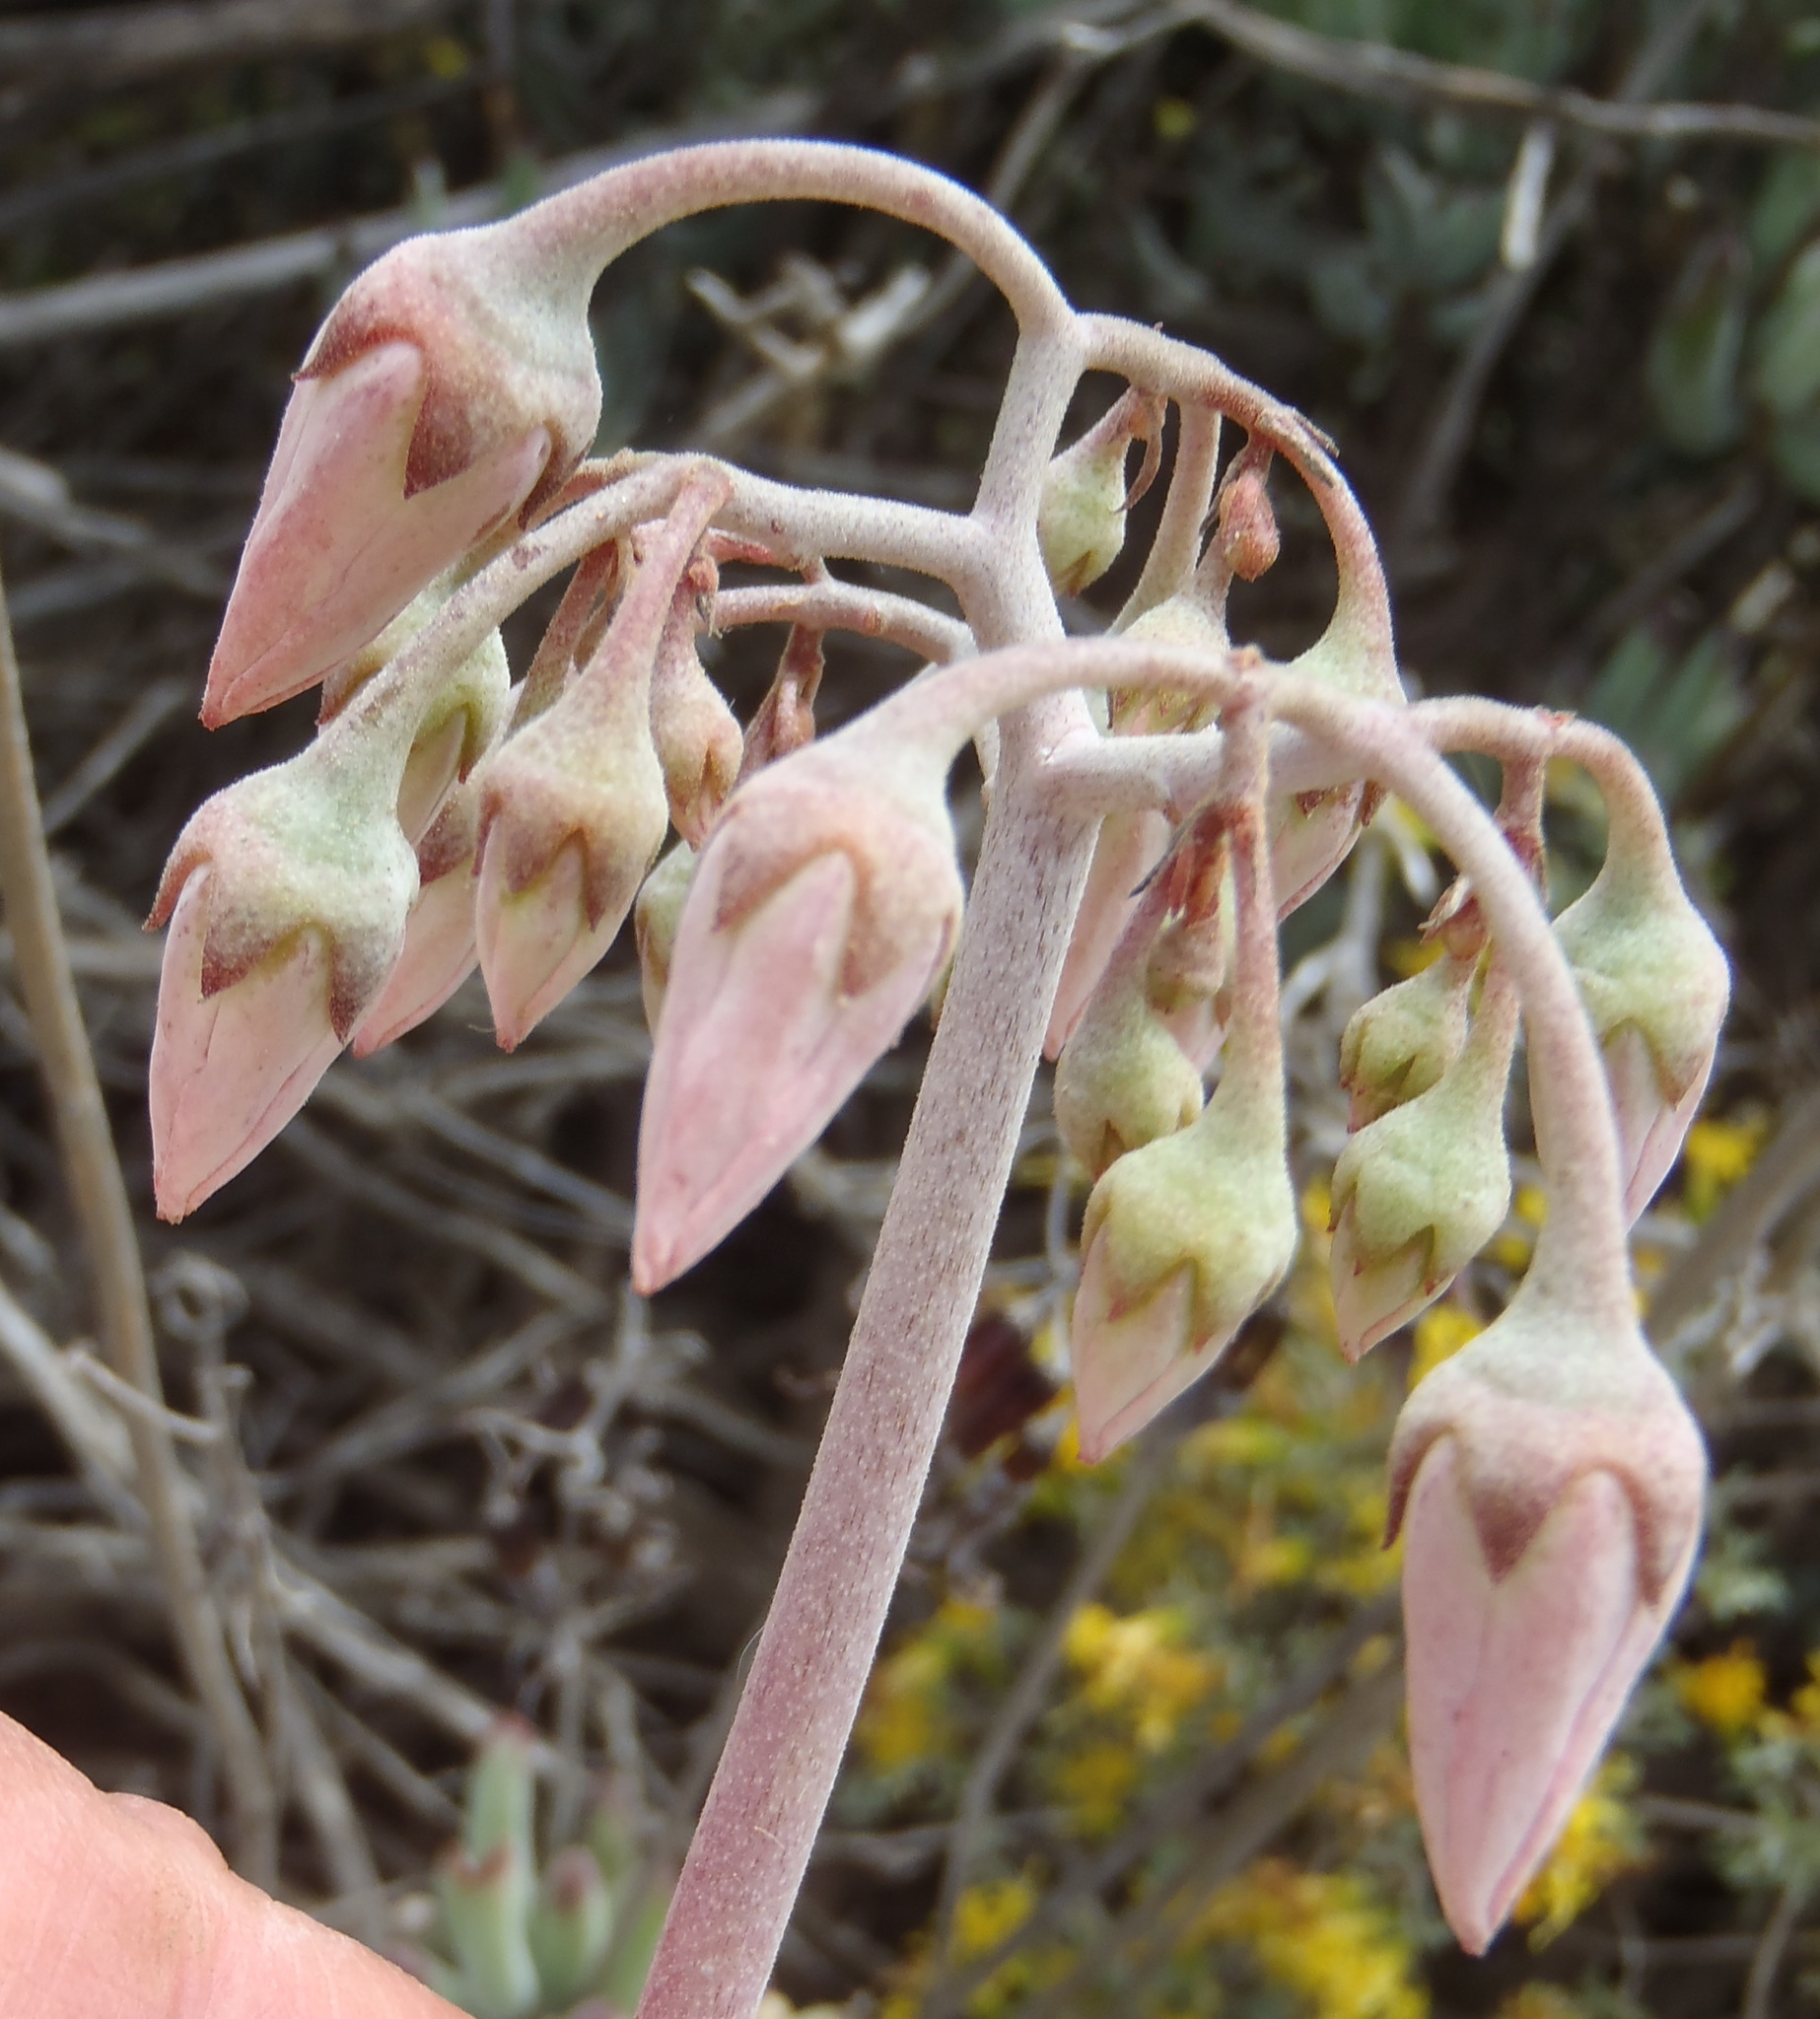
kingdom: Plantae
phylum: Tracheophyta
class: Magnoliopsida
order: Saxifragales
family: Crassulaceae
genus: Cotyledon
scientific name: Cotyledon orbiculata
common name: Pig's ear
